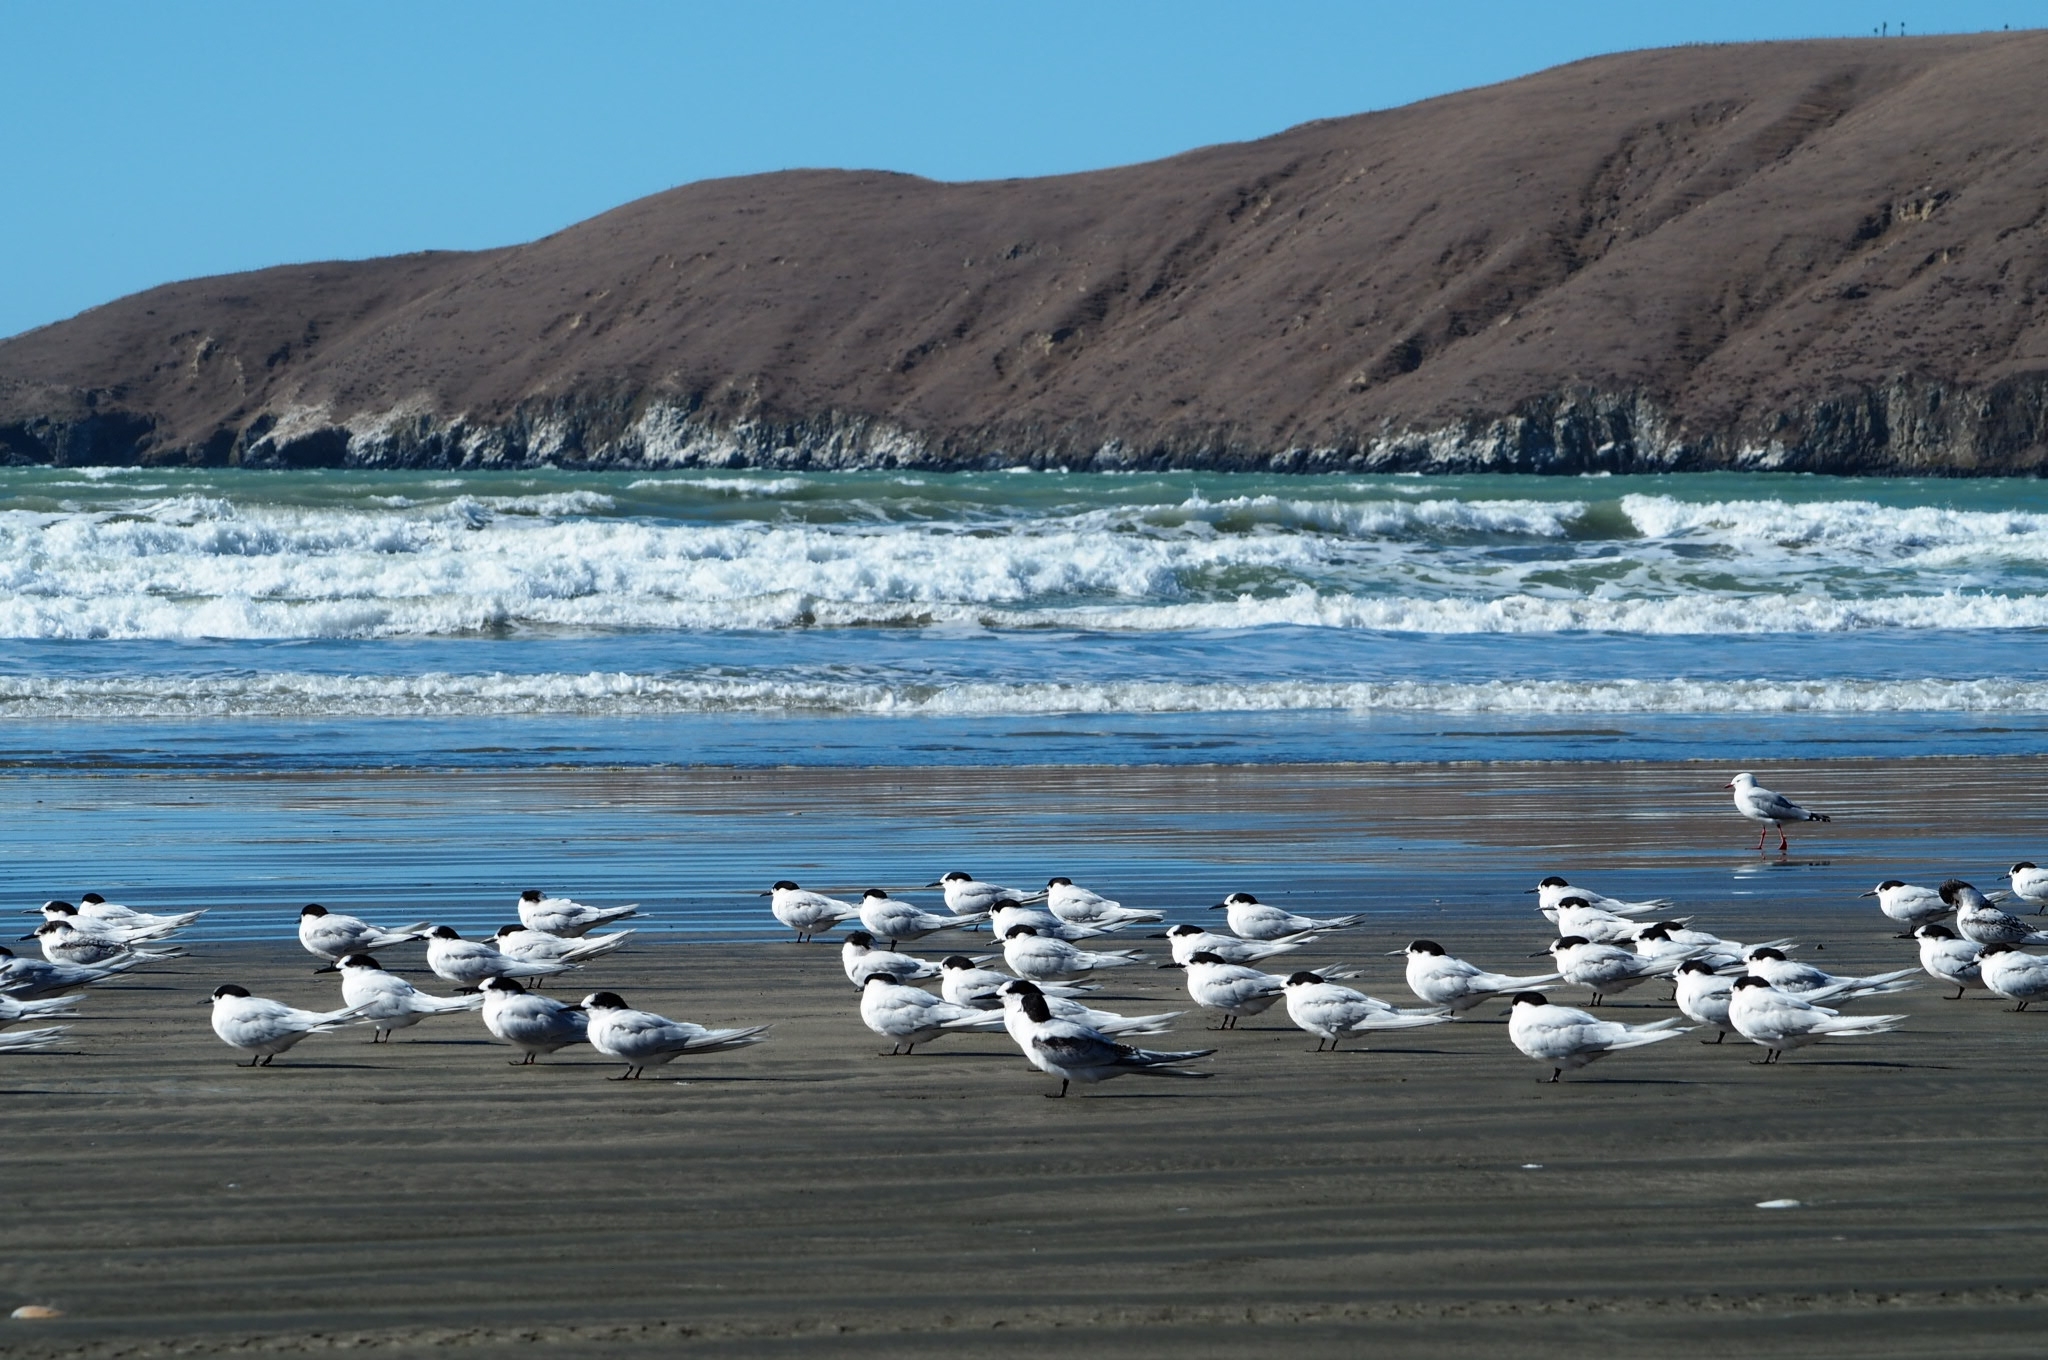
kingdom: Animalia
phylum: Chordata
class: Aves
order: Charadriiformes
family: Laridae
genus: Sterna
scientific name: Sterna striata
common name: White-fronted tern
